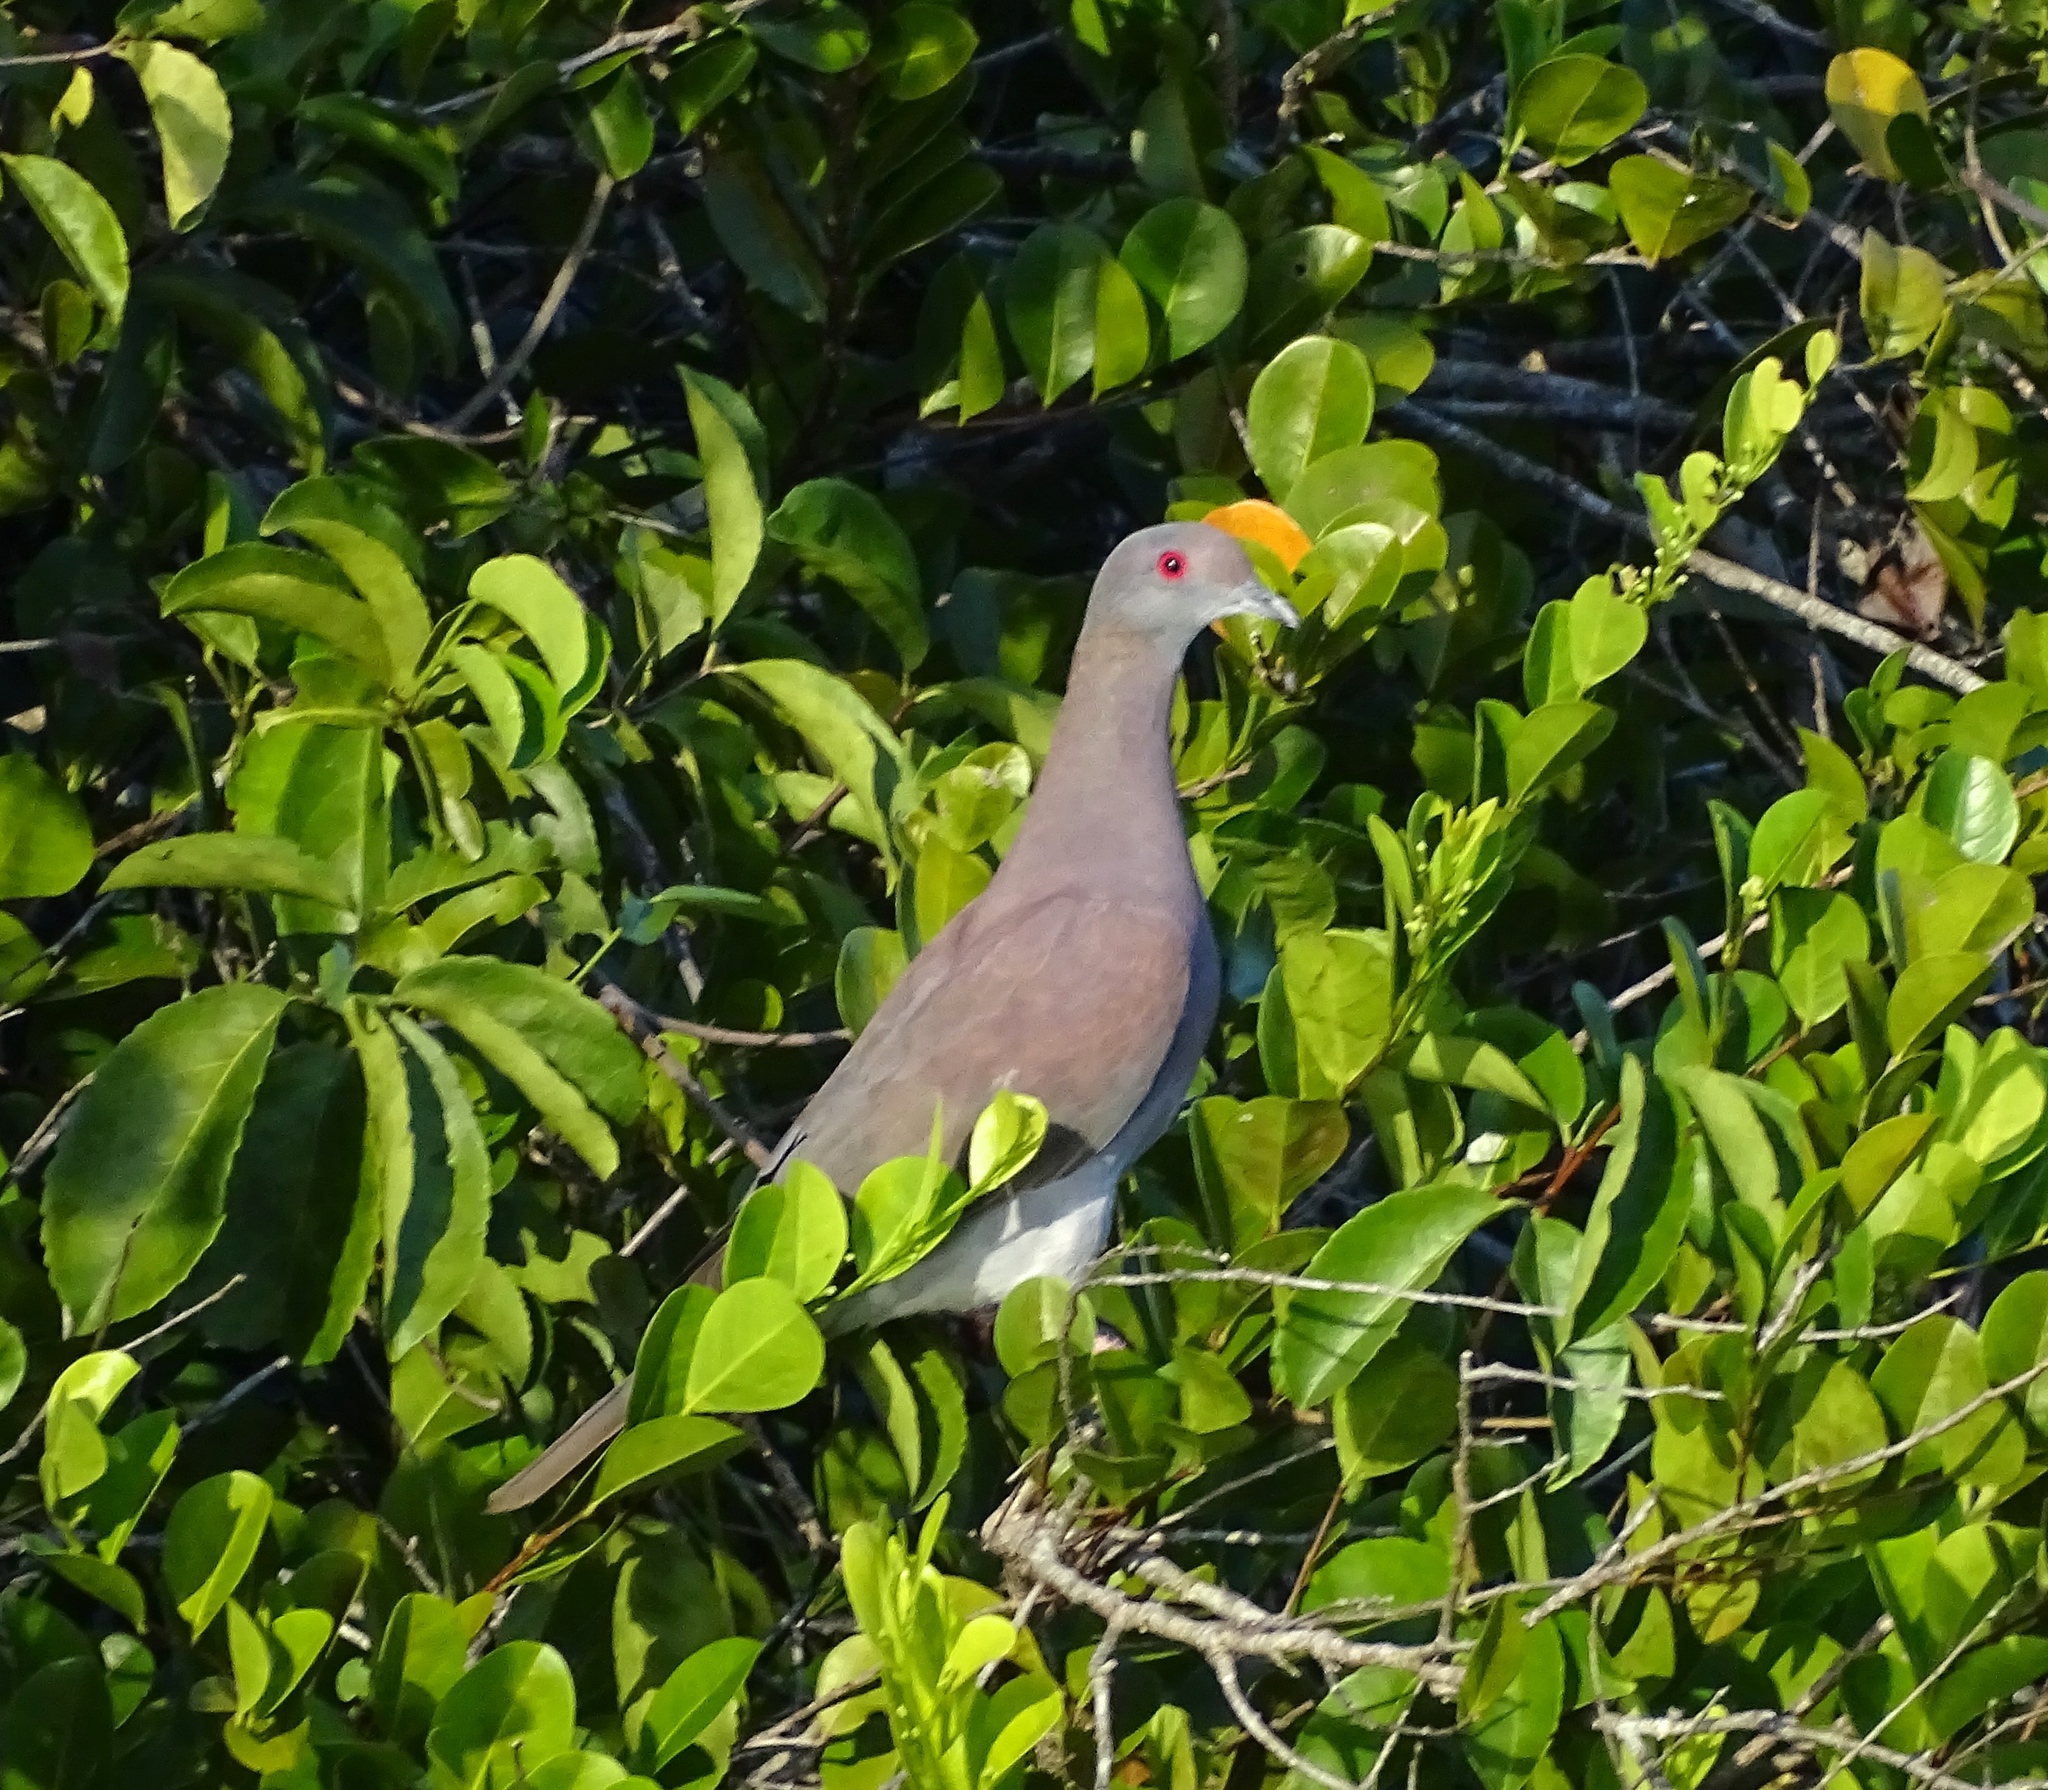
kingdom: Animalia
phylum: Chordata
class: Aves
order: Columbiformes
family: Columbidae
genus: Patagioenas
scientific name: Patagioenas cayennensis
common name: Pale-vented pigeon
